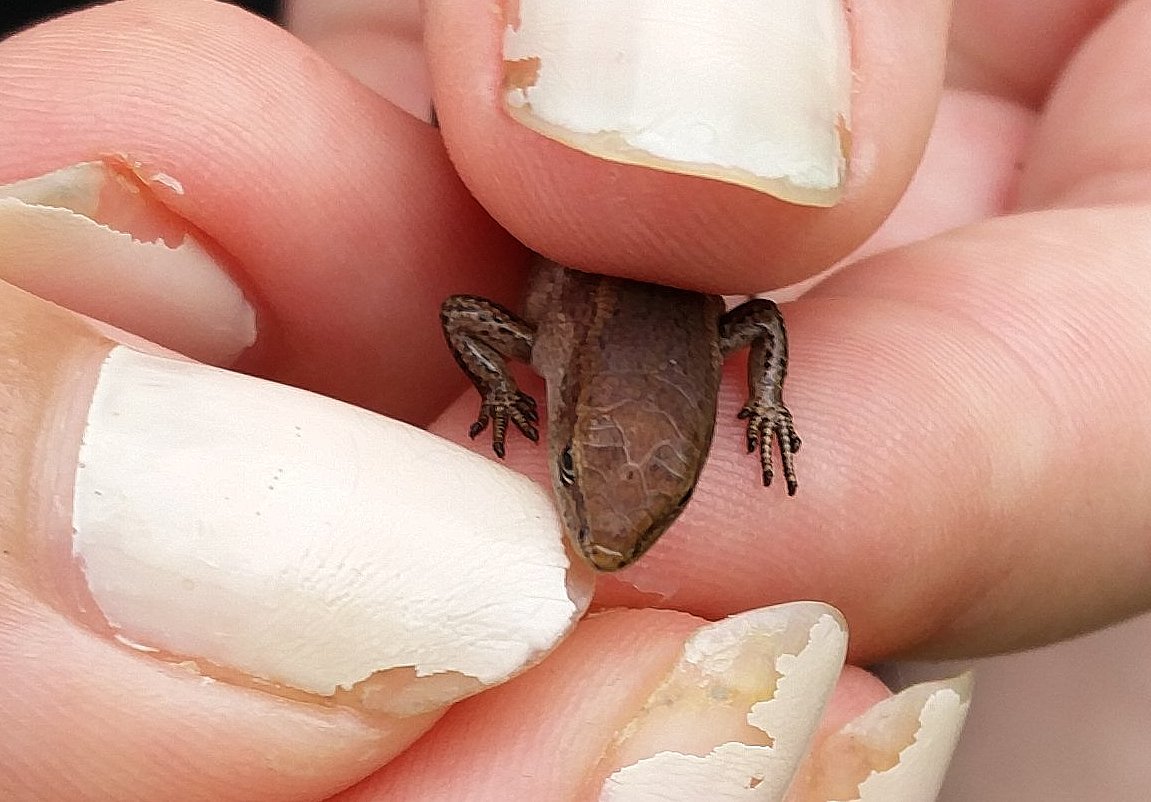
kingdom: Animalia
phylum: Chordata
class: Squamata
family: Scincidae
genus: Lampropholis
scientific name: Lampropholis delicata
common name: Plague skink
